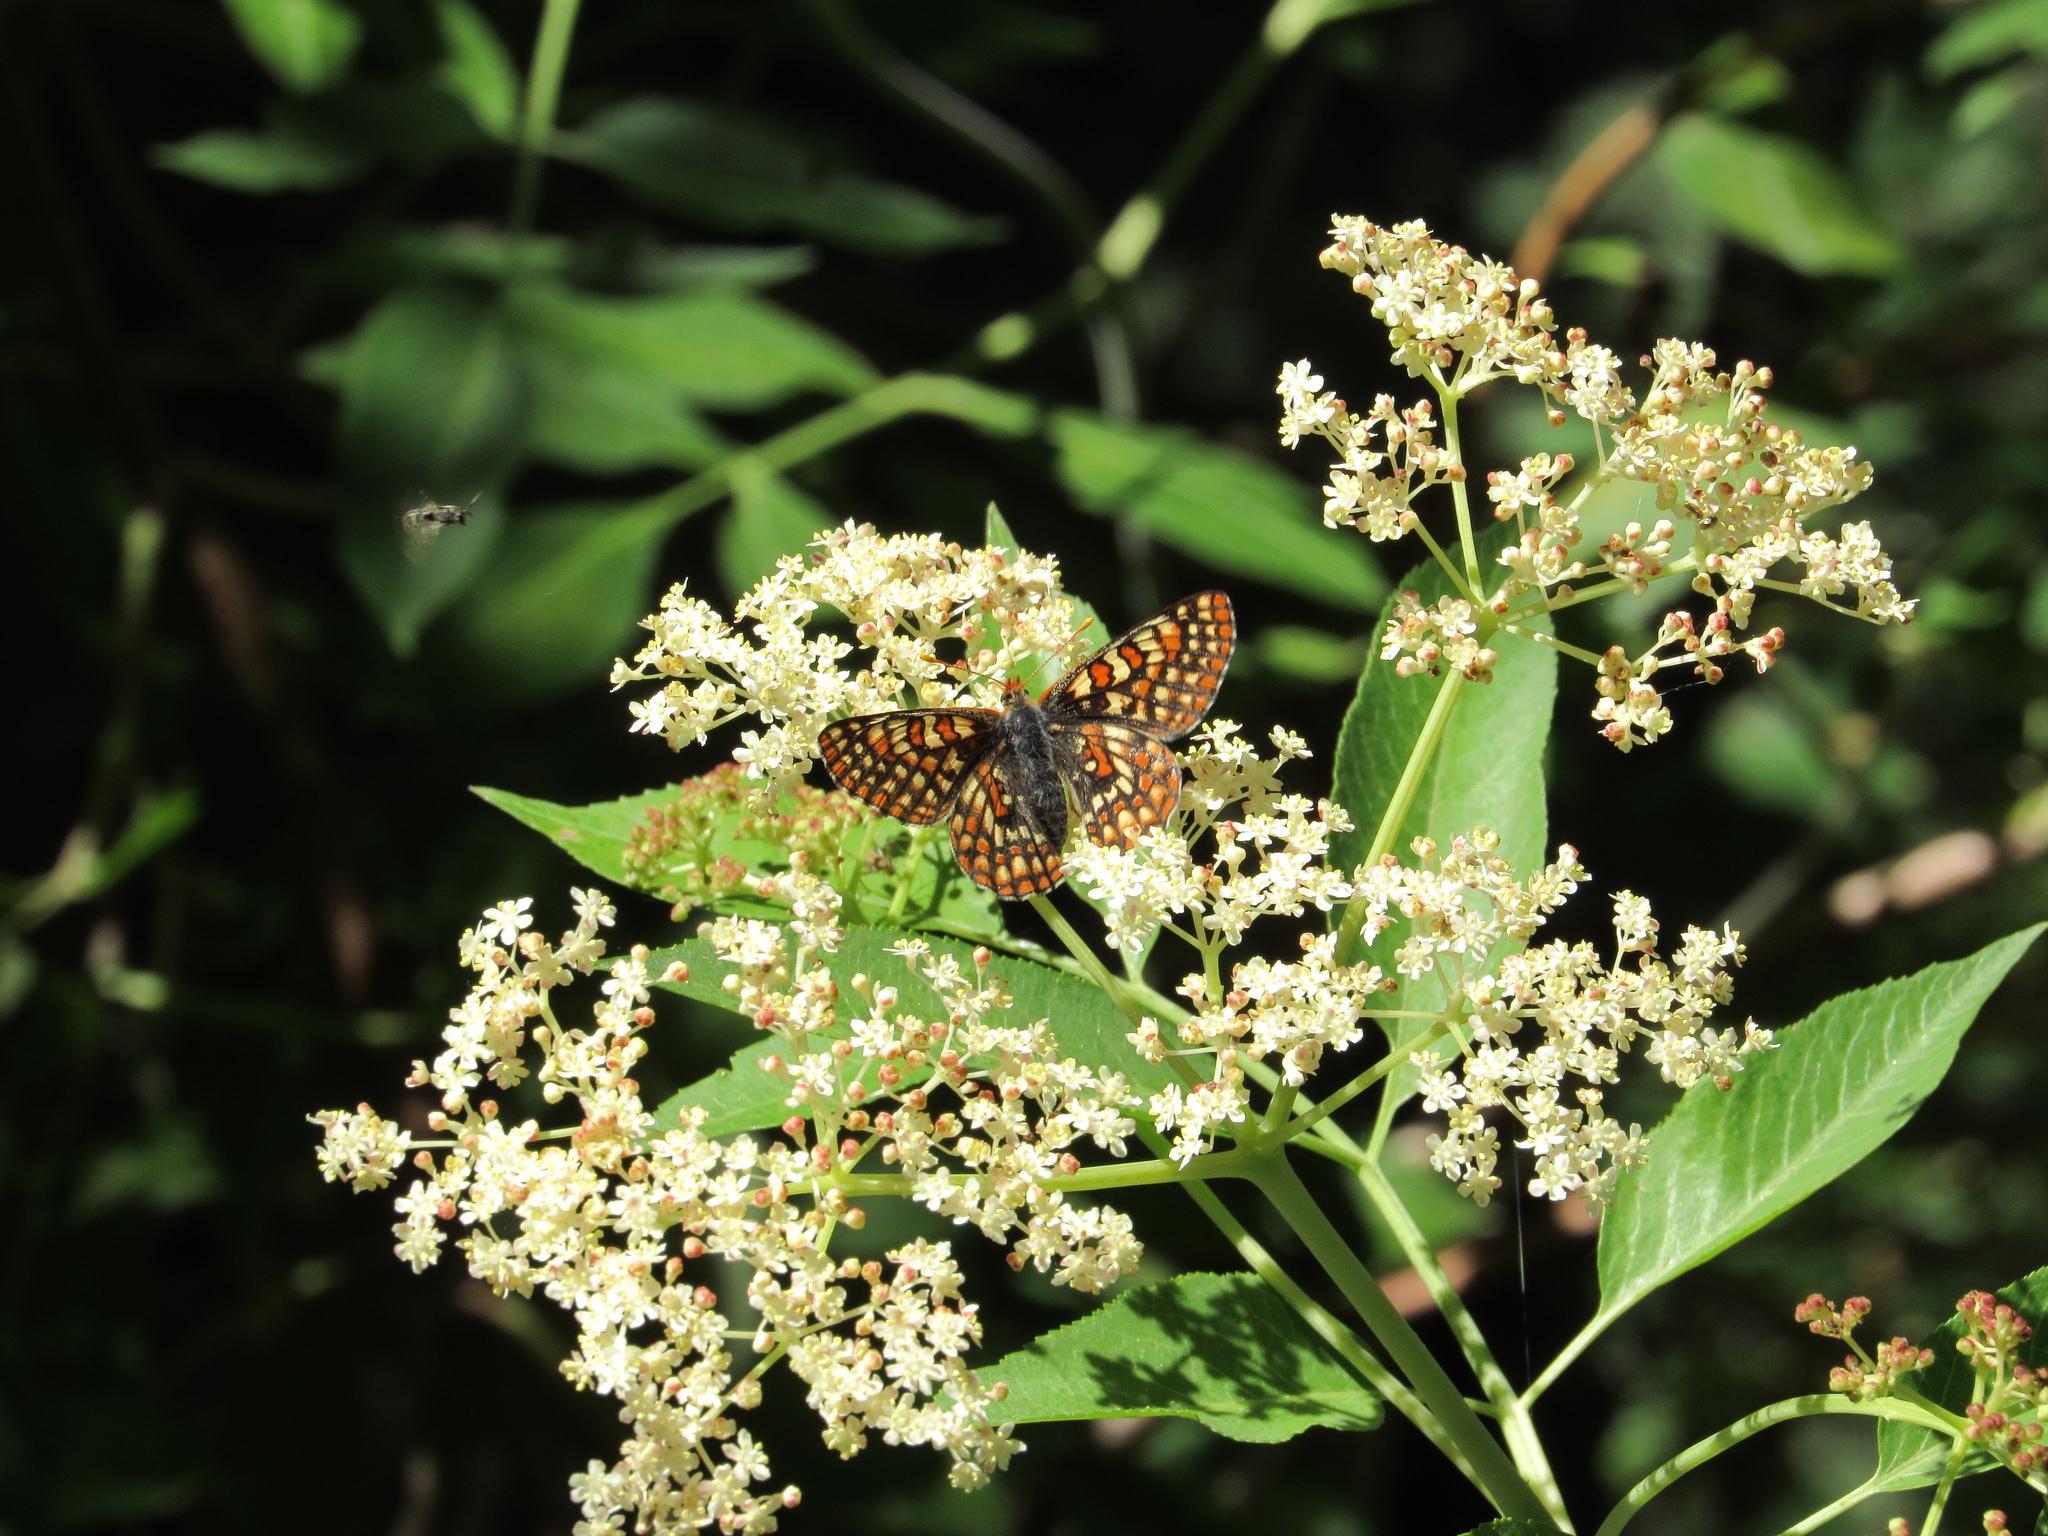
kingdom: Animalia
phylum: Arthropoda
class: Insecta
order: Lepidoptera
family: Nymphalidae
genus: Occidryas
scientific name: Occidryas anicia
